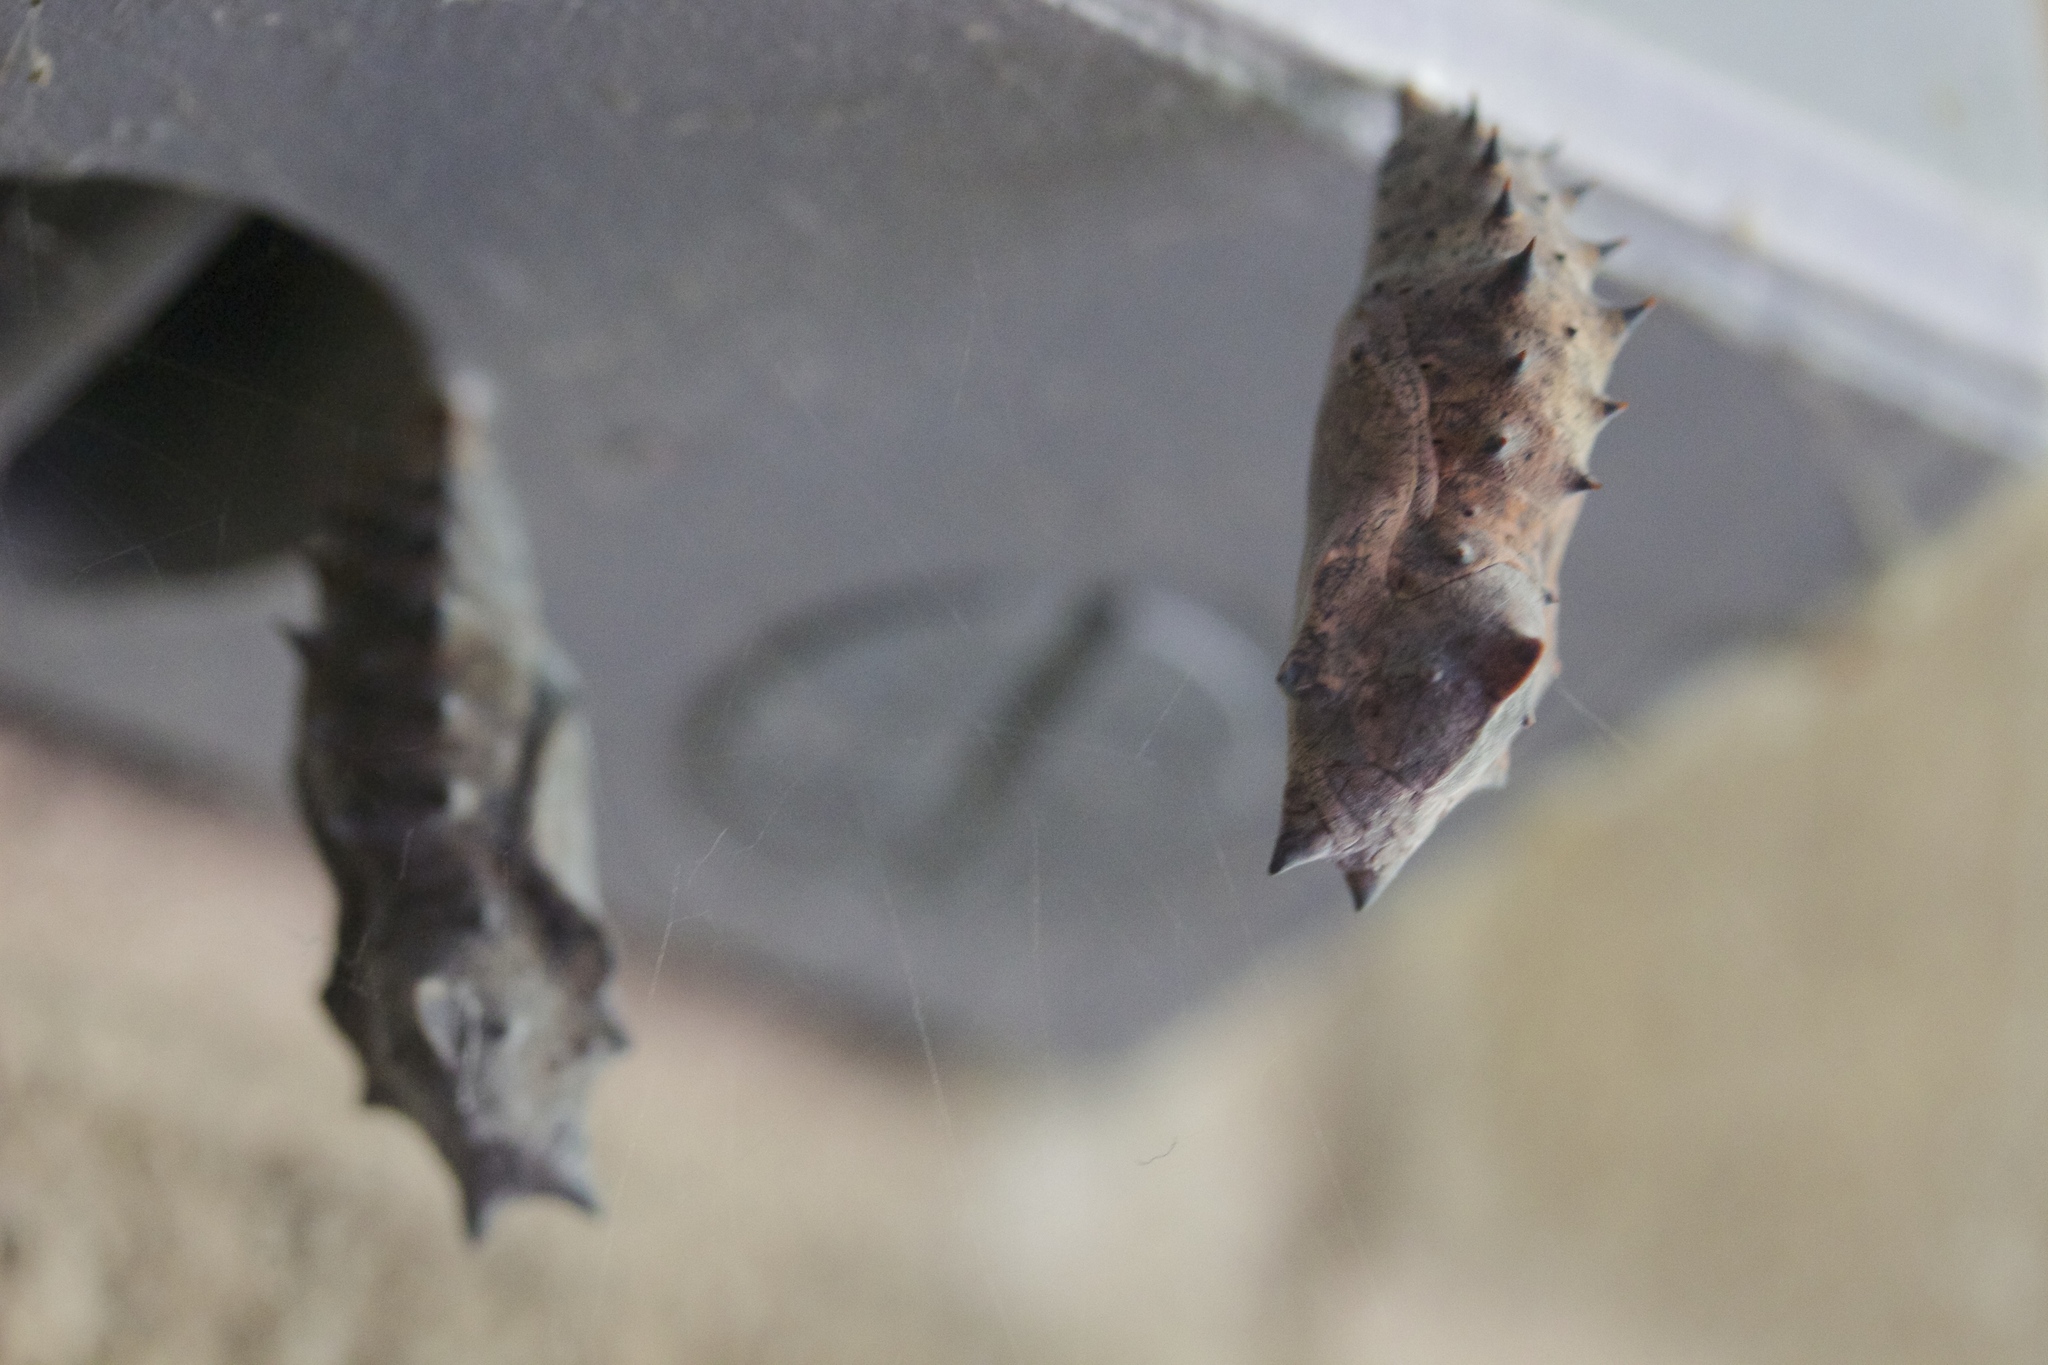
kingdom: Animalia
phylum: Arthropoda
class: Insecta
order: Lepidoptera
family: Nymphalidae
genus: Nymphalis
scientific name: Nymphalis antiopa
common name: Camberwell beauty
